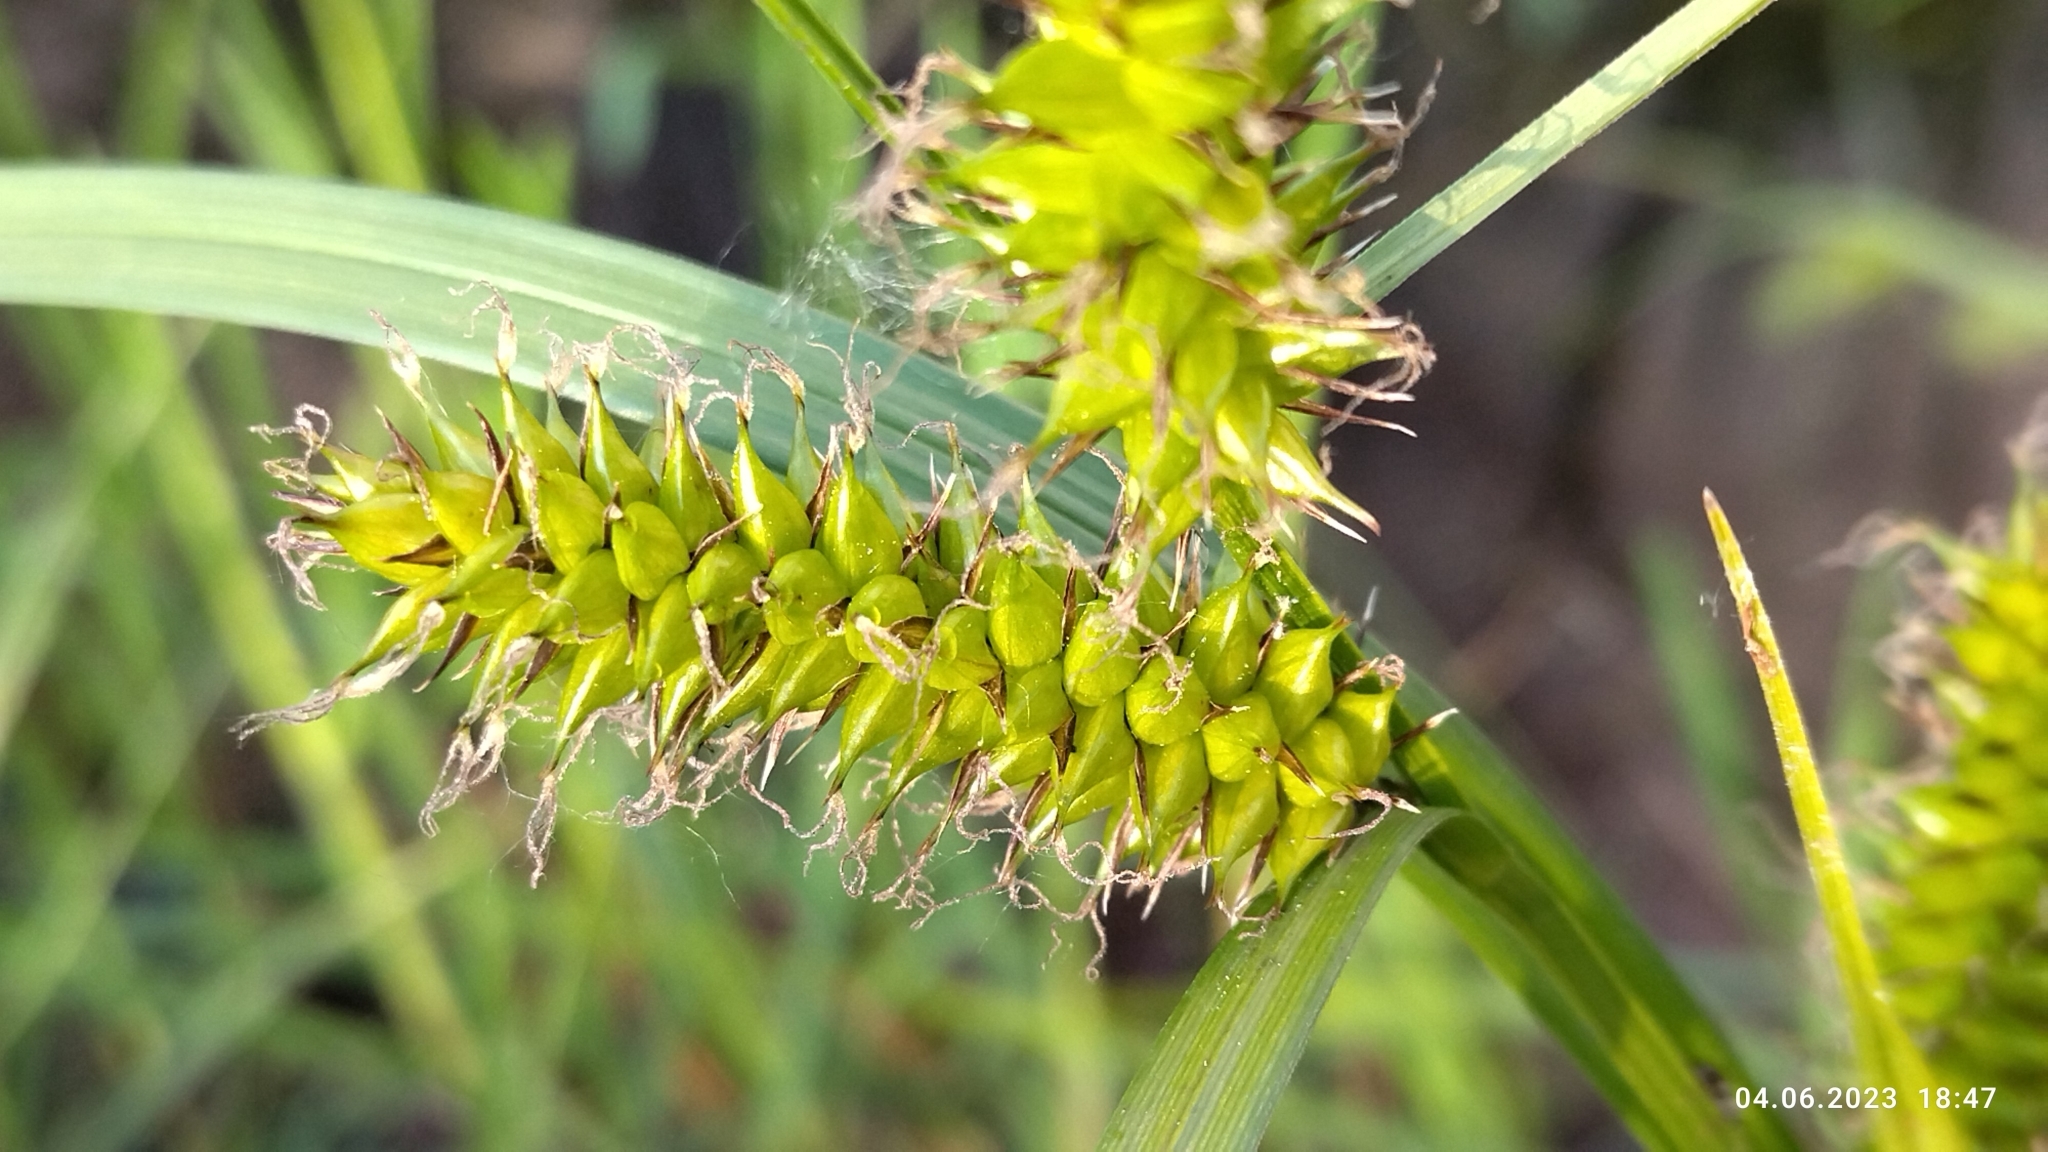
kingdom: Plantae
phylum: Tracheophyta
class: Liliopsida
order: Poales
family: Cyperaceae
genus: Carex
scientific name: Carex vesicaria
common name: Bladder-sedge
